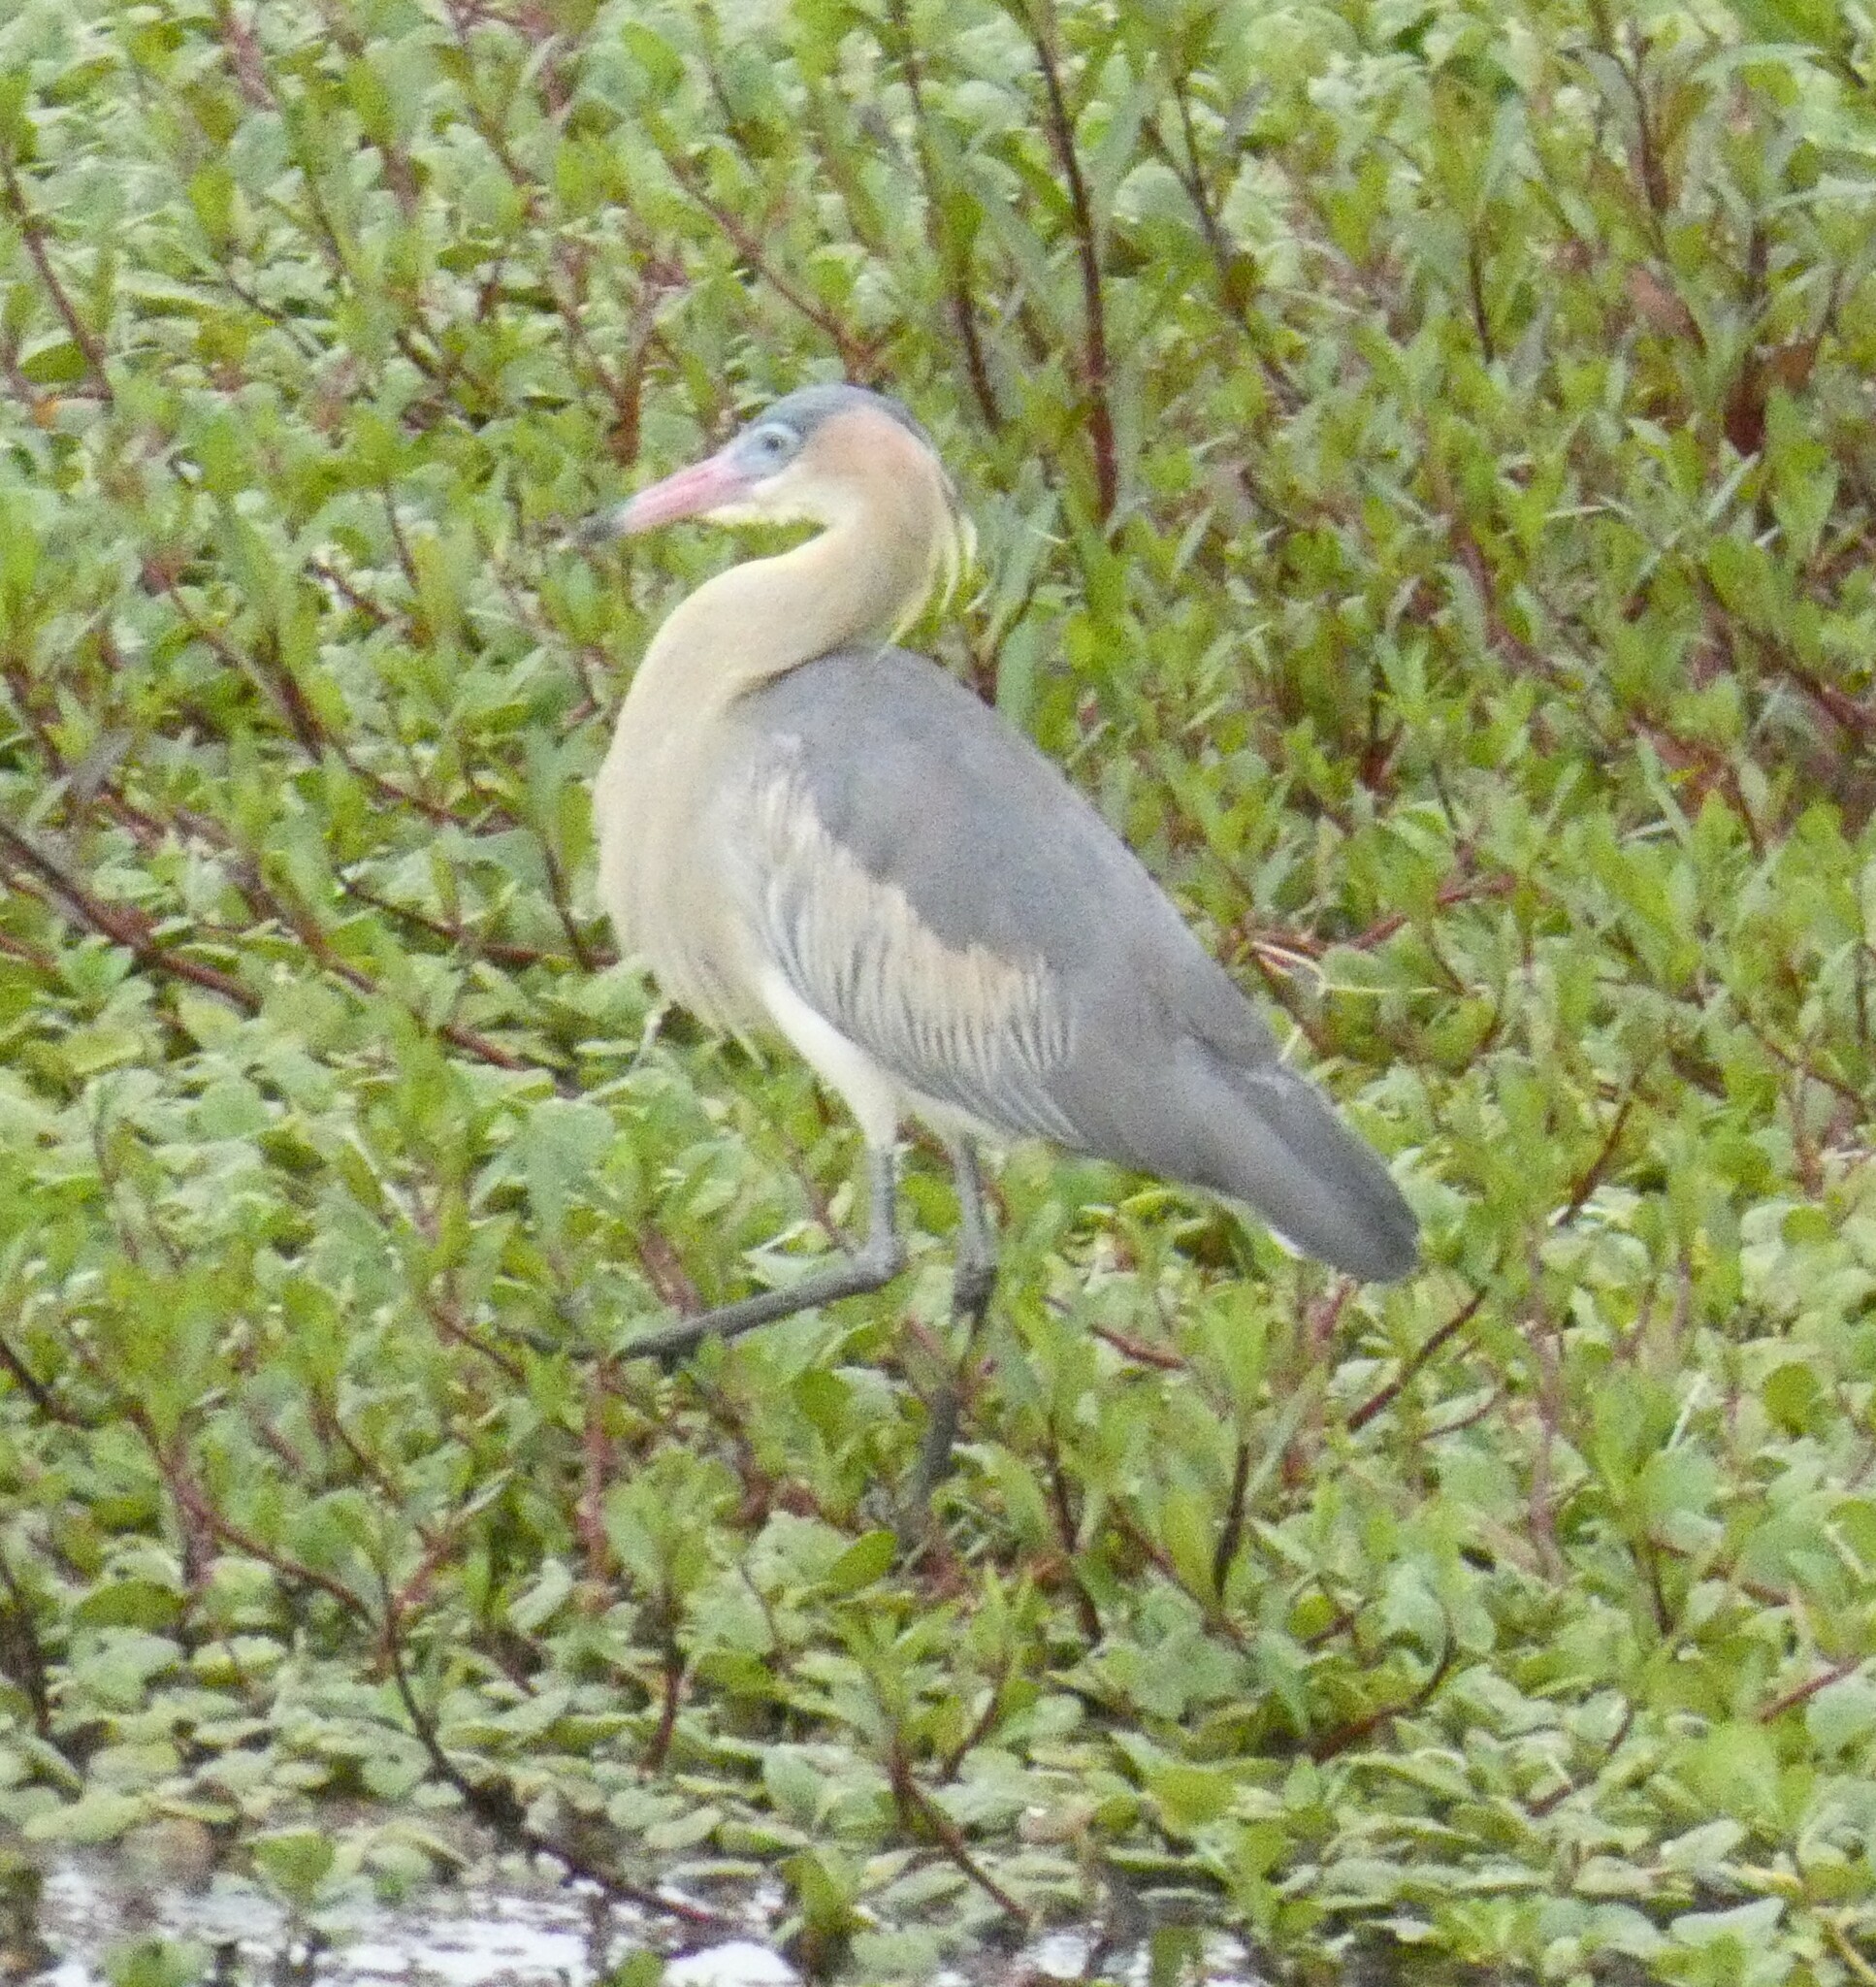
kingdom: Animalia
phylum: Chordata
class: Aves
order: Pelecaniformes
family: Ardeidae
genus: Syrigma
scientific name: Syrigma sibilatrix
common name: Whistling heron
